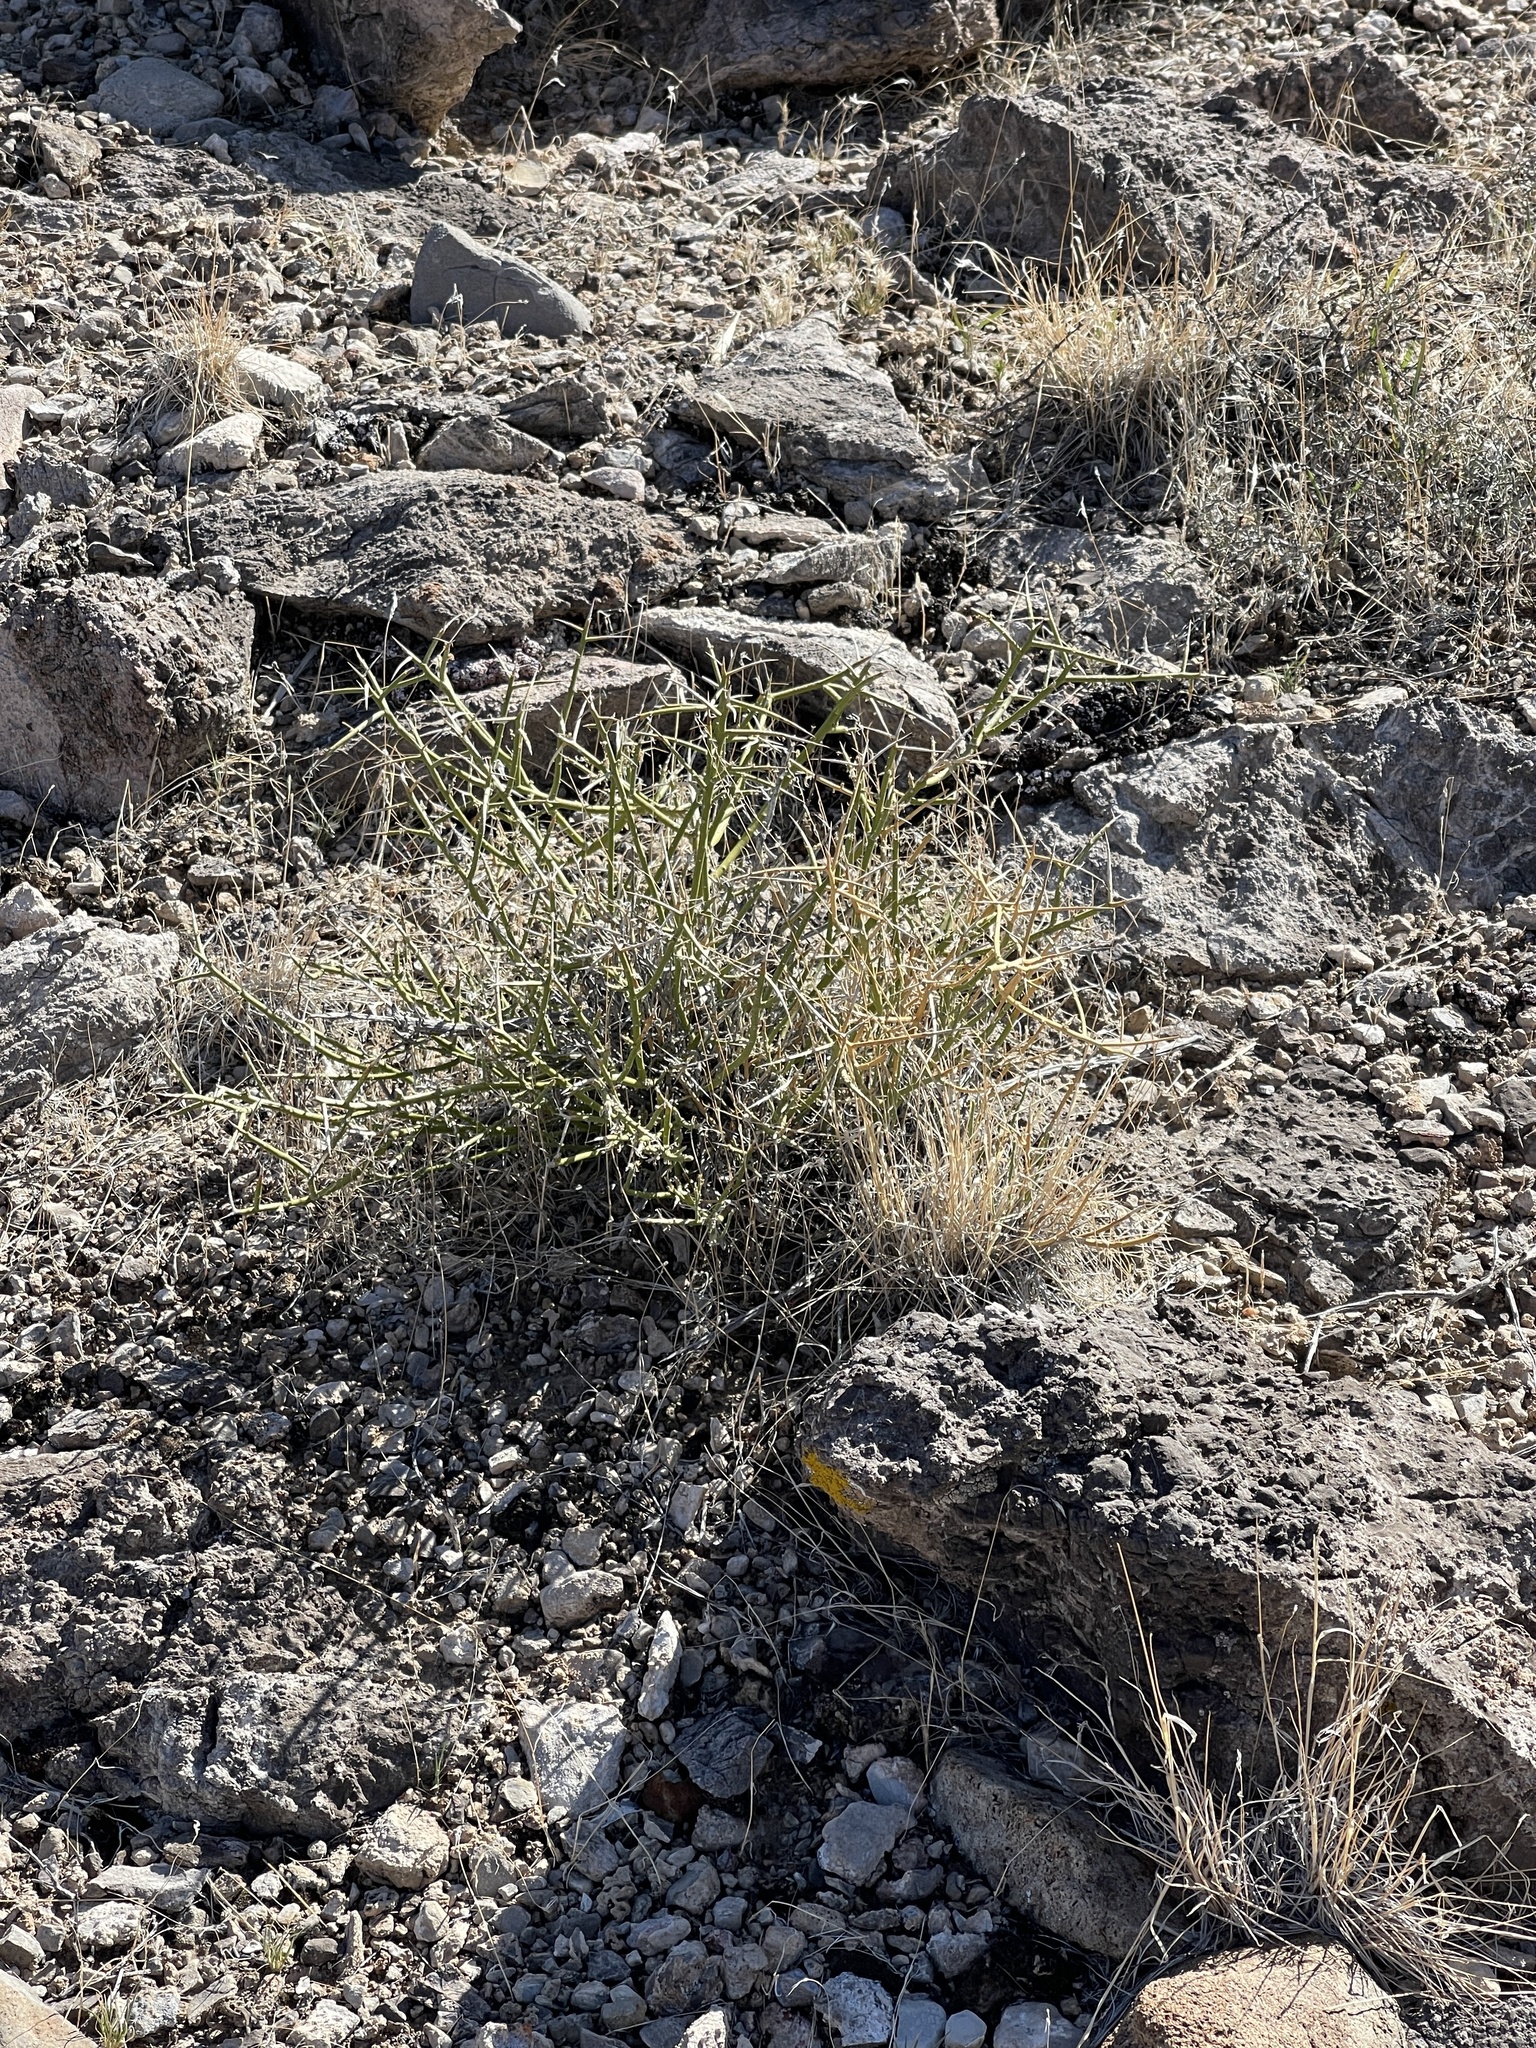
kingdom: Plantae
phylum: Tracheophyta
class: Magnoliopsida
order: Lamiales
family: Oleaceae
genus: Menodora
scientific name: Menodora spinescens
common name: Spiny menodora
